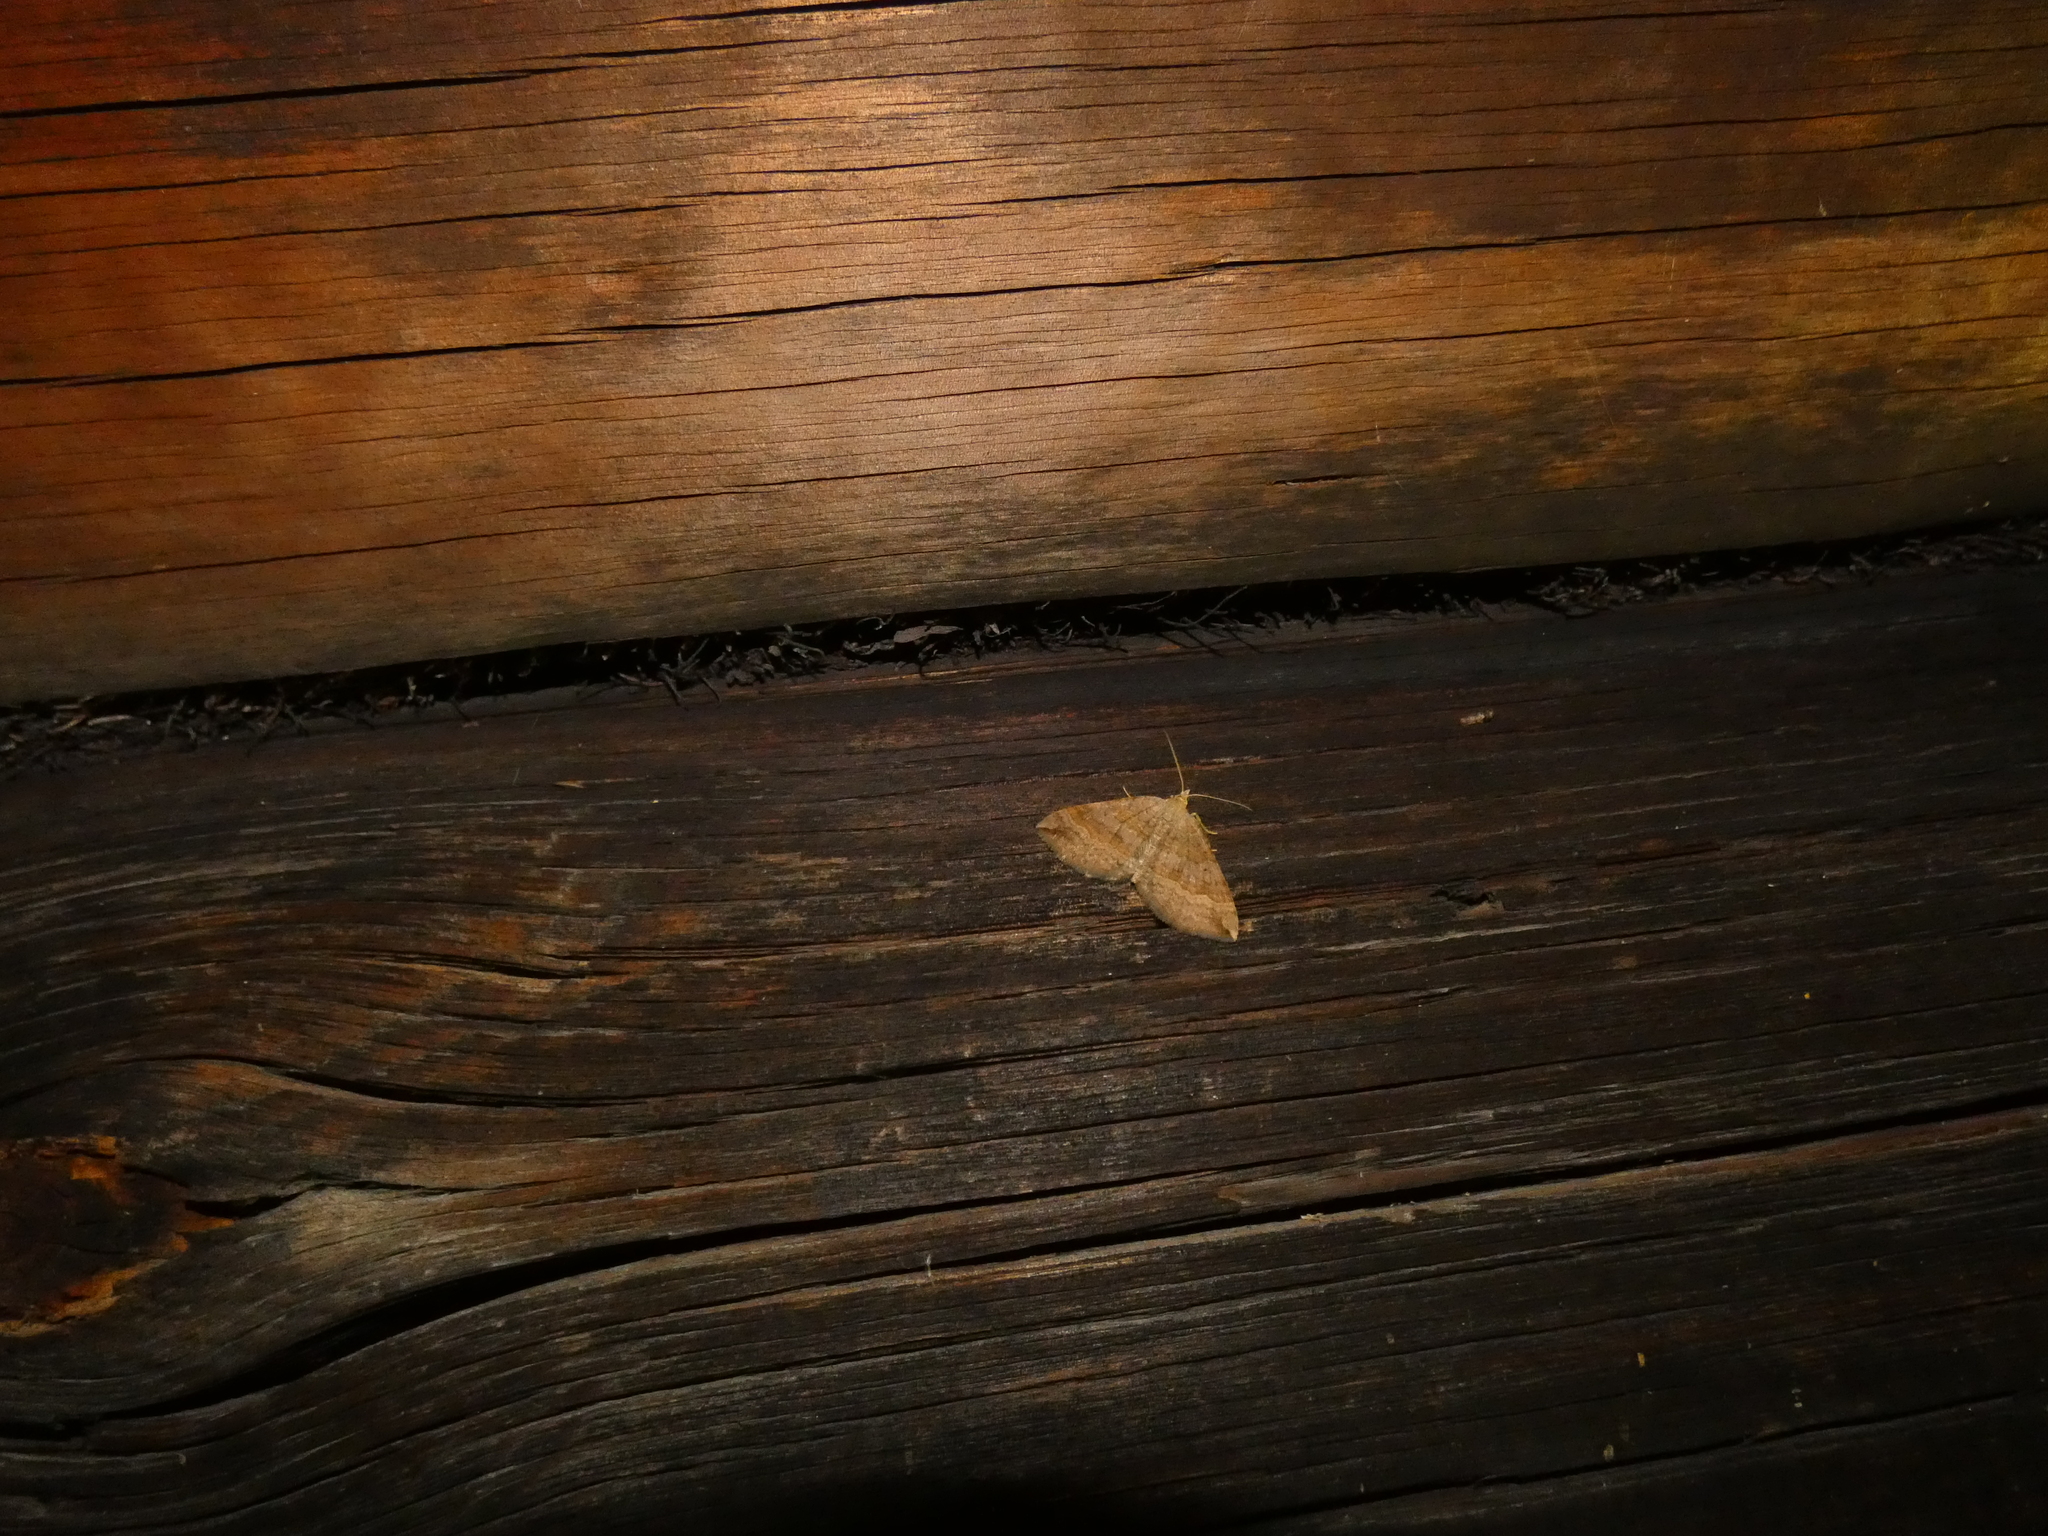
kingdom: Animalia
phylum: Arthropoda
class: Insecta
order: Lepidoptera
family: Geometridae
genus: Scotopteryx
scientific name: Scotopteryx chenopodiata
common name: Shaded broad-bar
